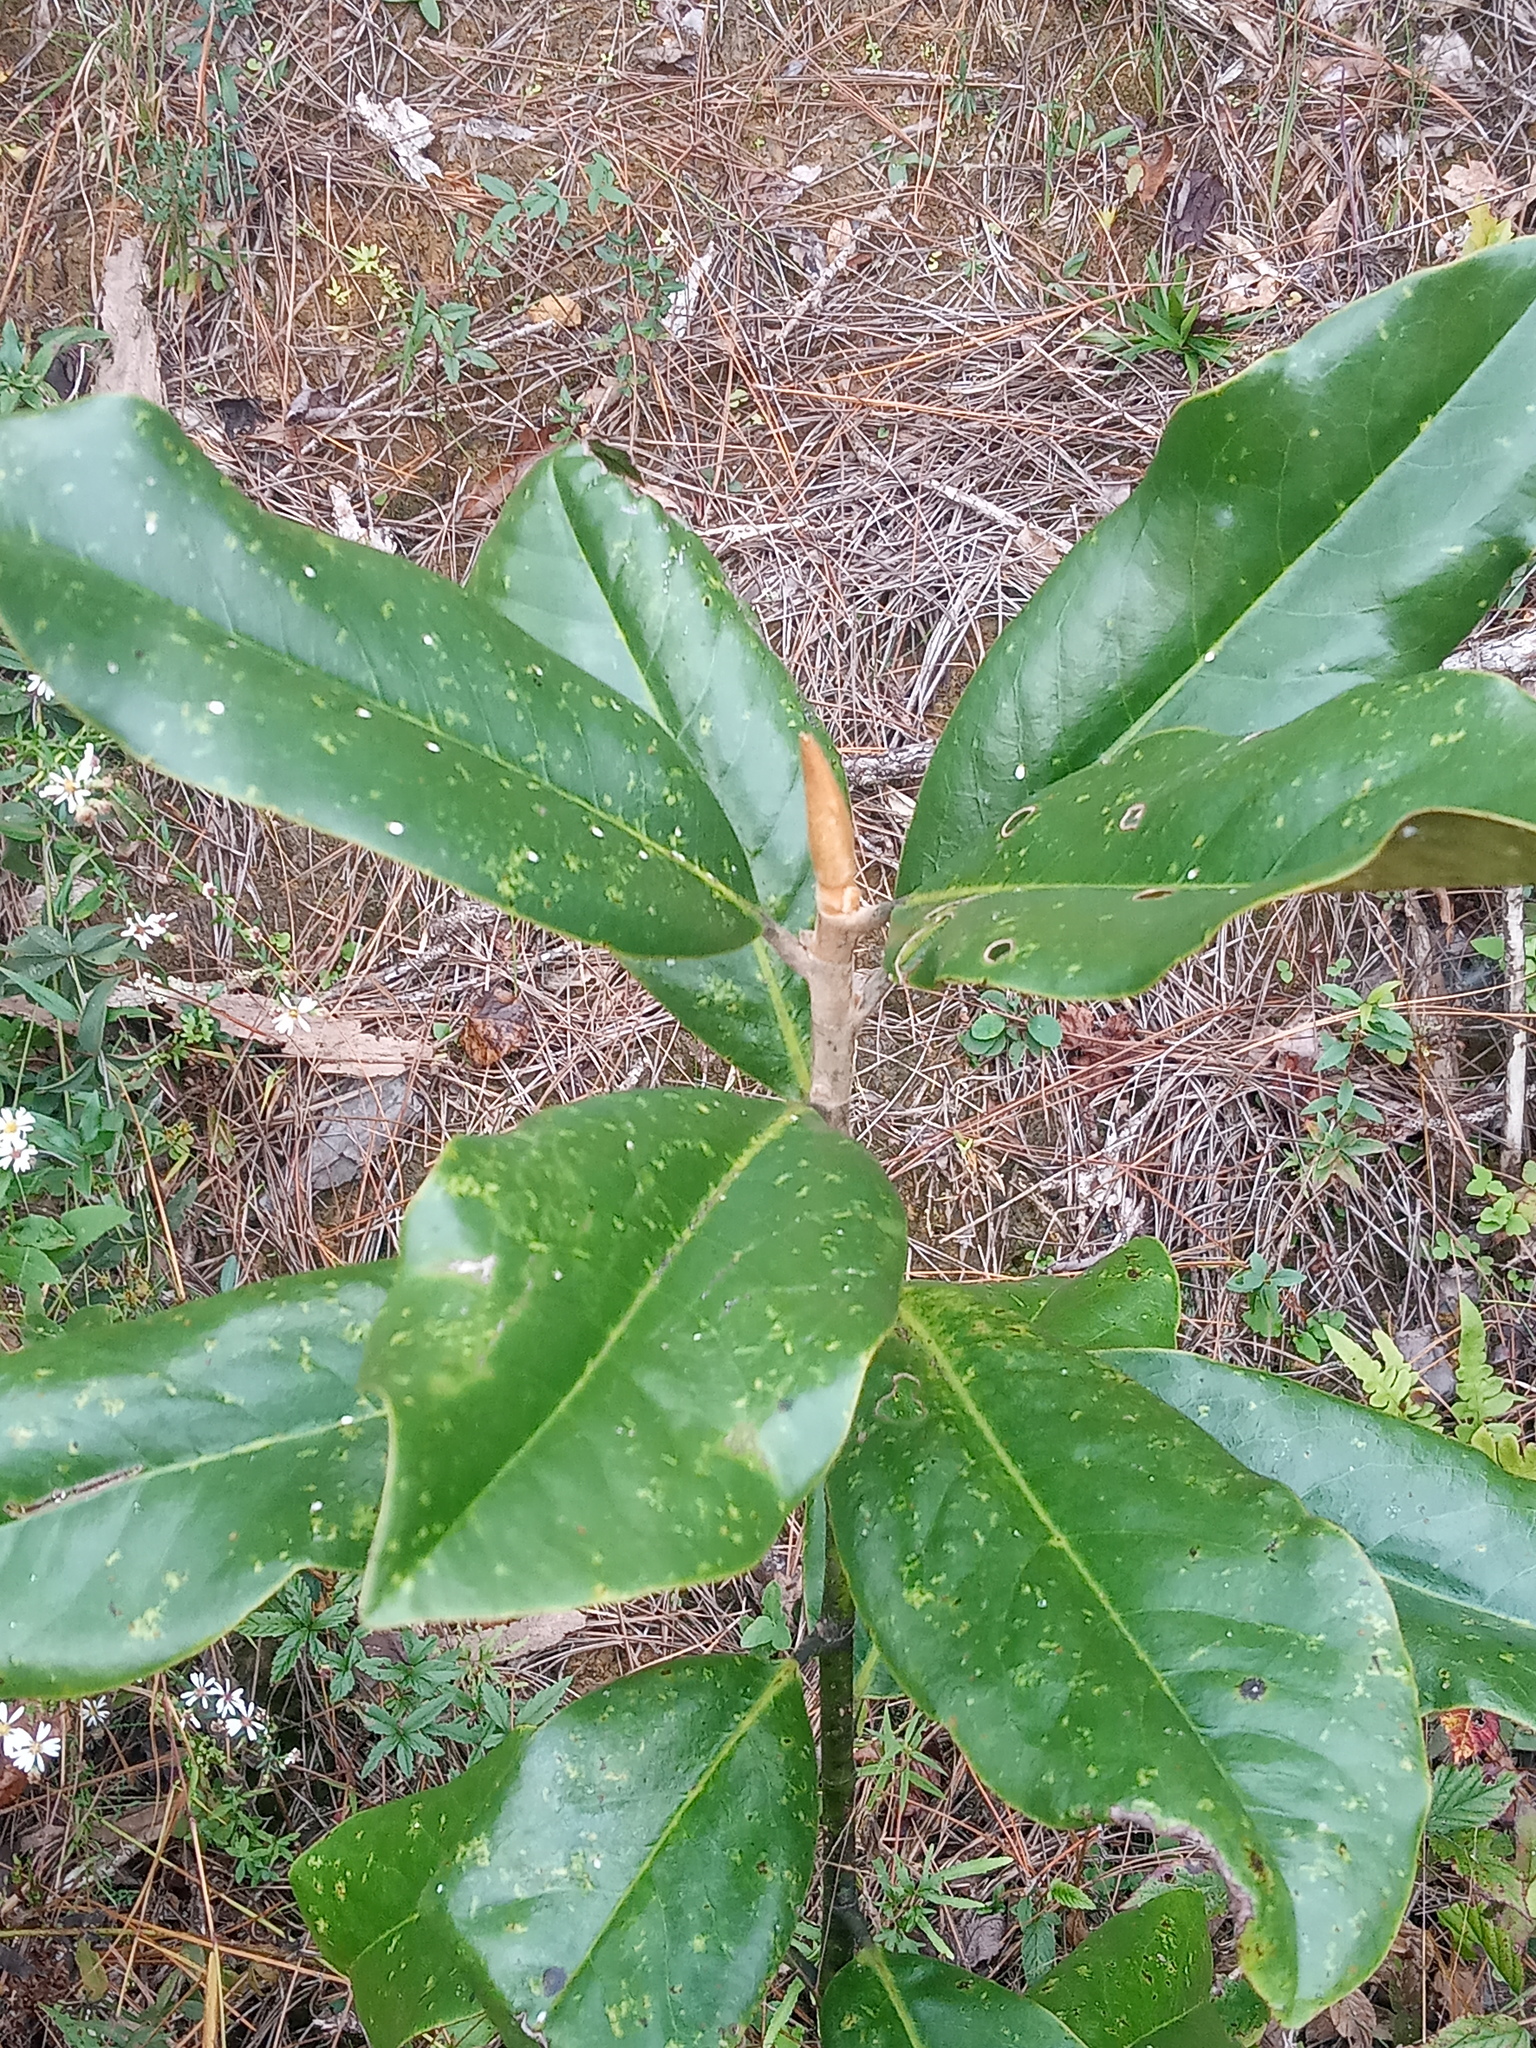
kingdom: Plantae
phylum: Tracheophyta
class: Magnoliopsida
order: Magnoliales
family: Magnoliaceae
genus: Magnolia
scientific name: Magnolia grandiflora
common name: Southern magnolia
